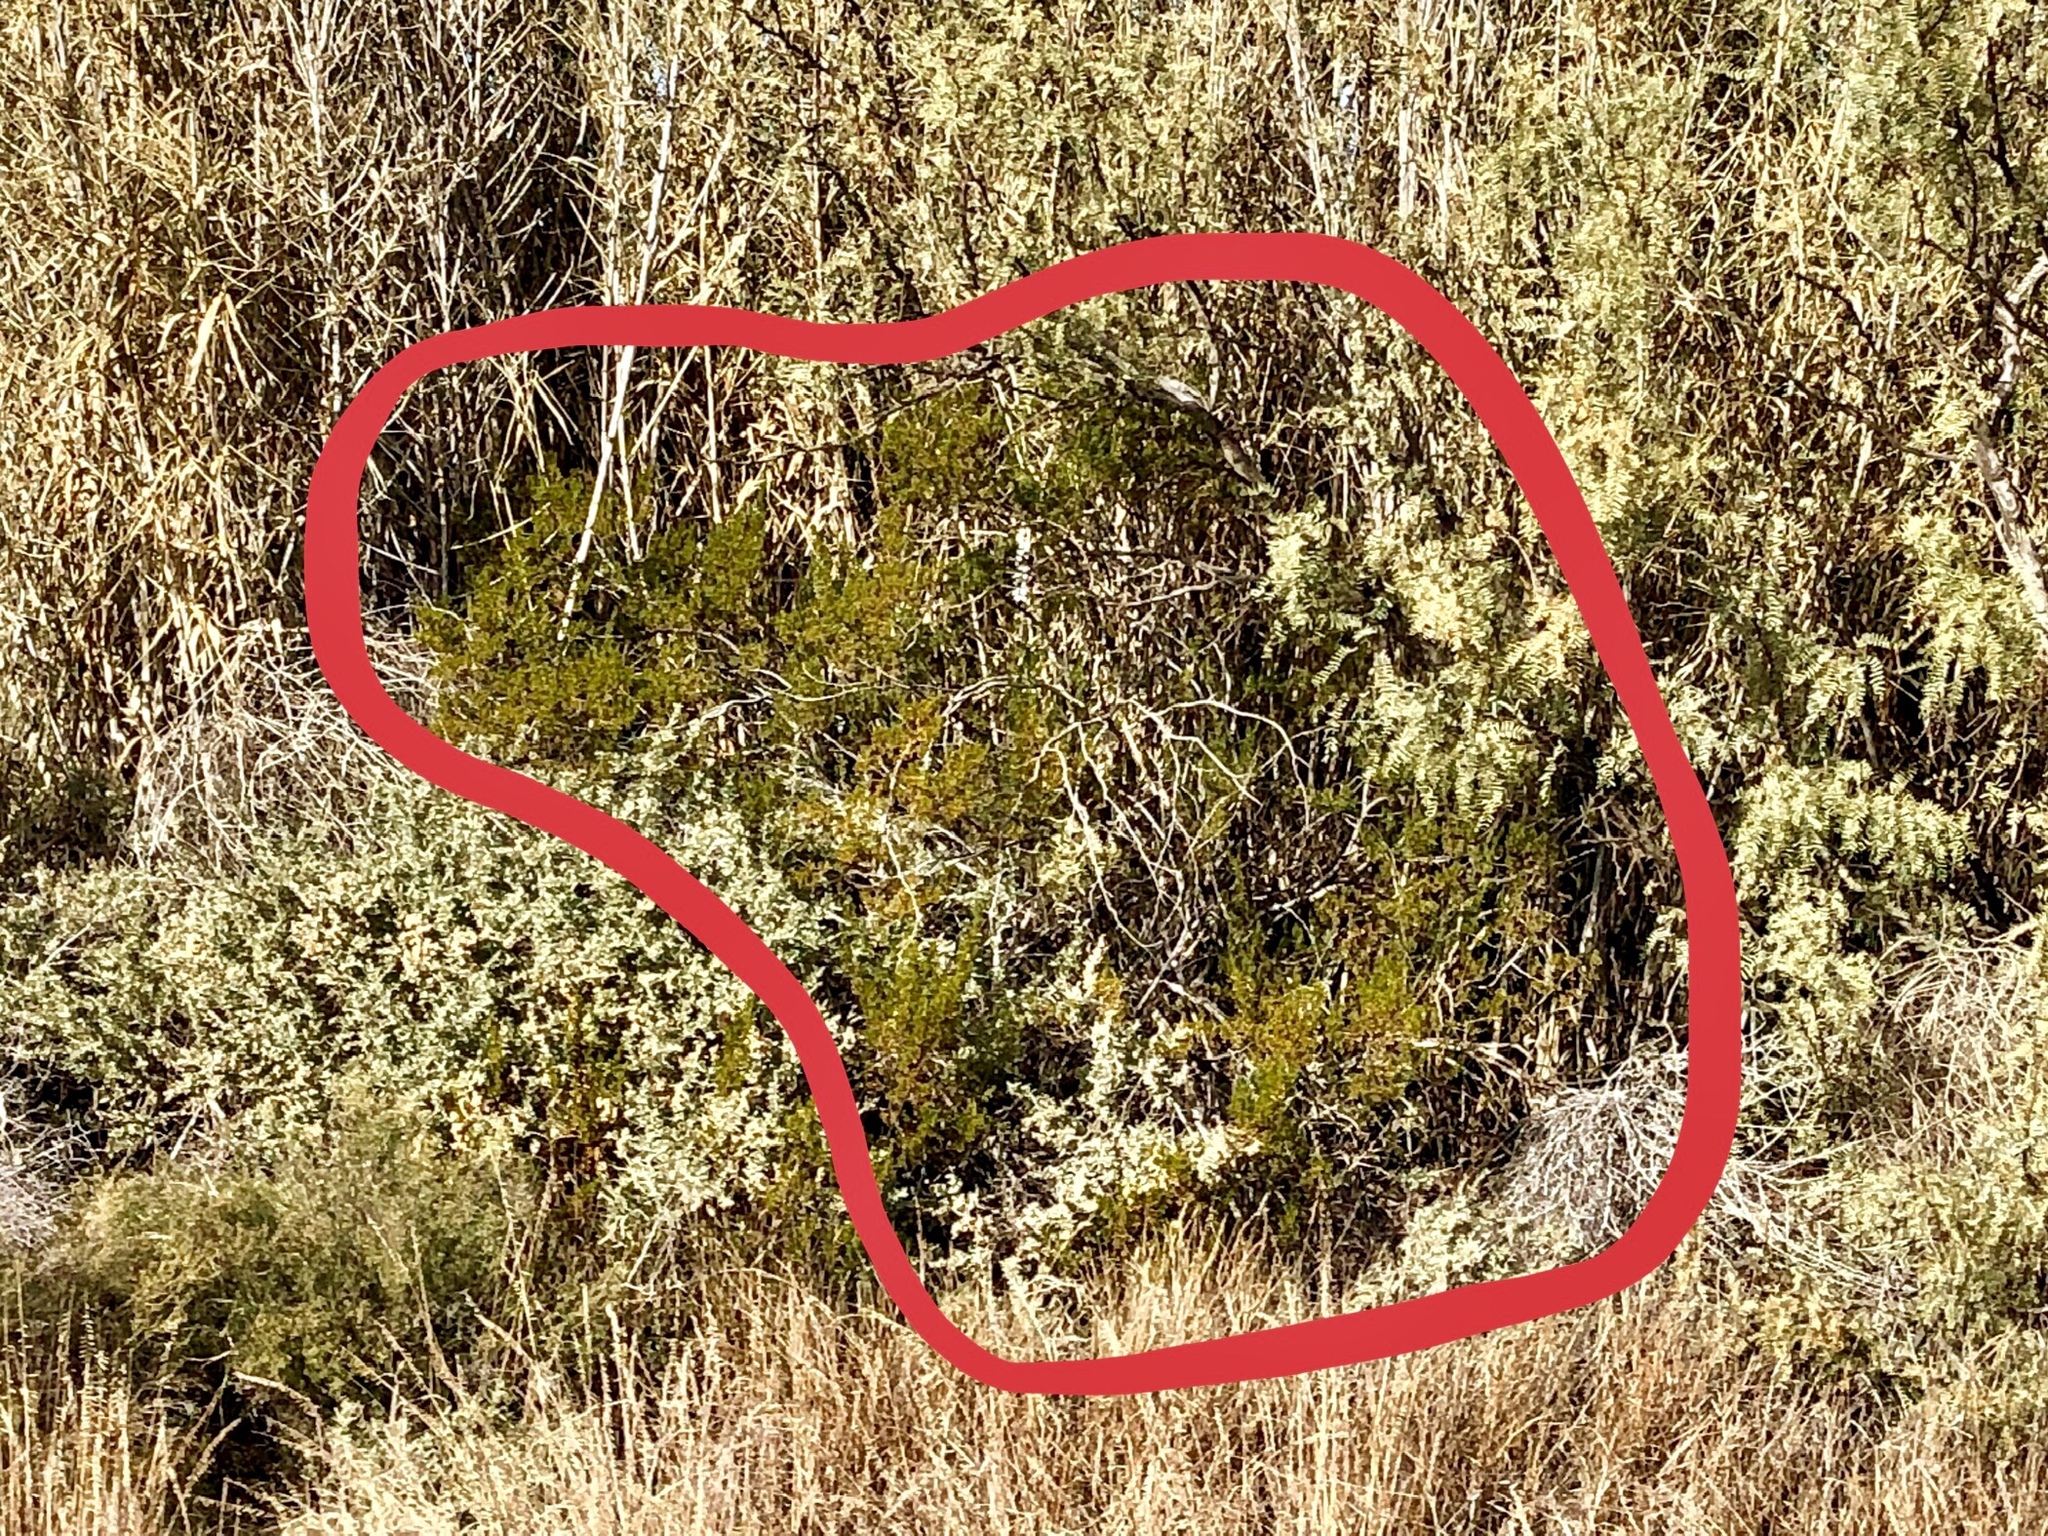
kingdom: Plantae
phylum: Tracheophyta
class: Magnoliopsida
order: Zygophyllales
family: Zygophyllaceae
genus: Larrea
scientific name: Larrea tridentata
